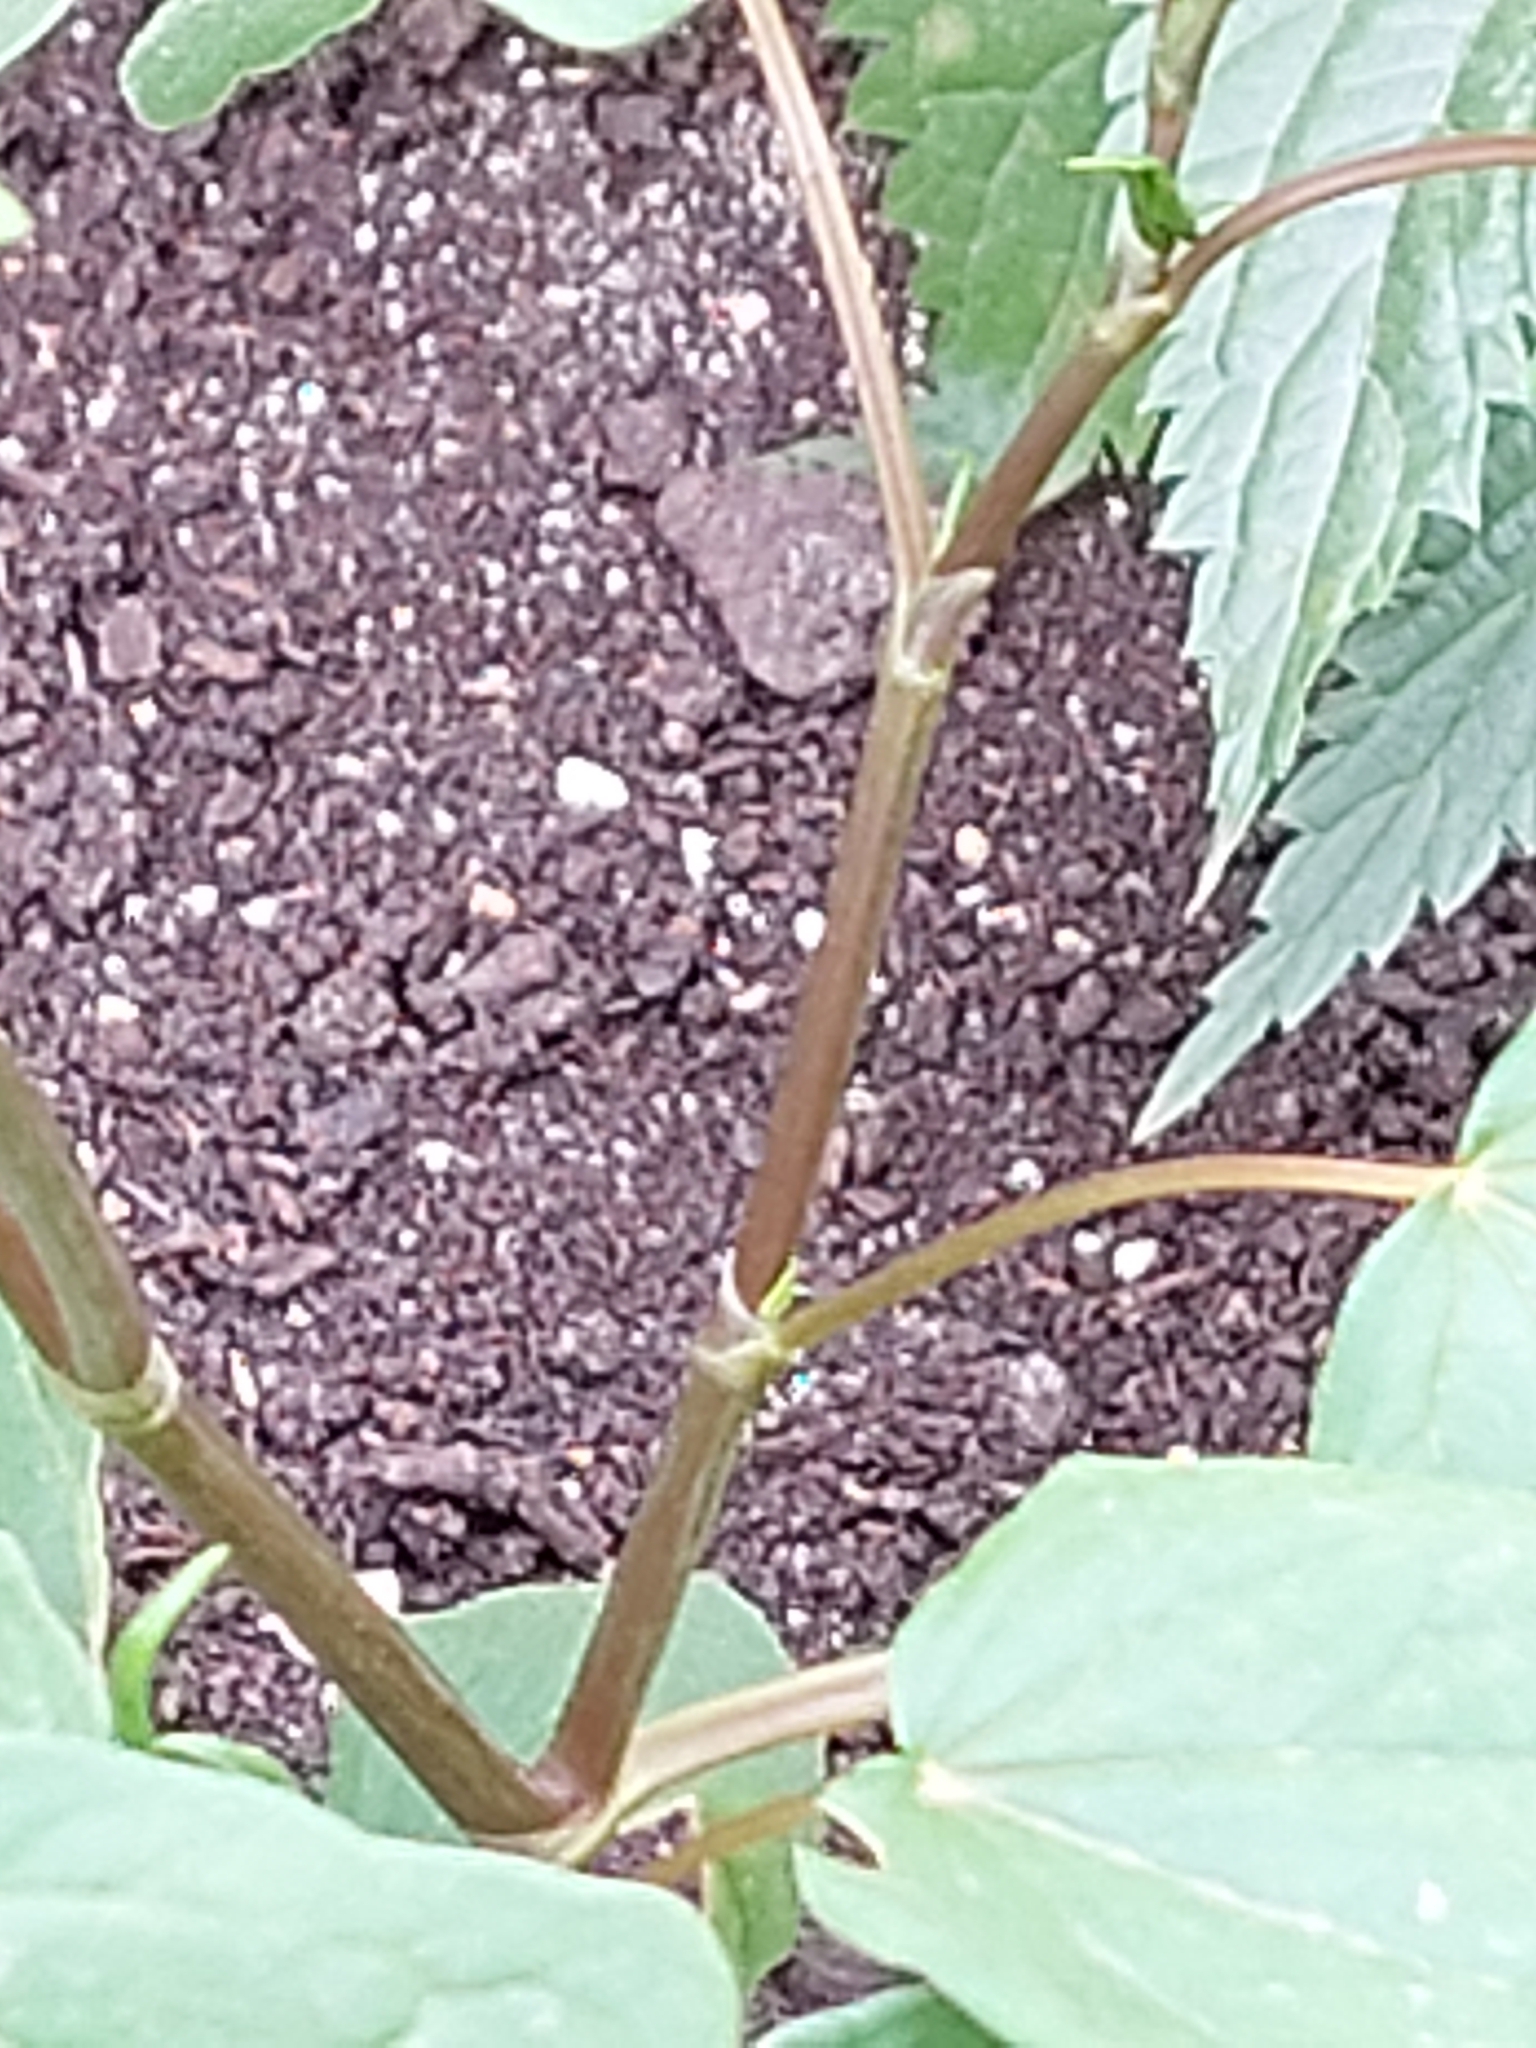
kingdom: Plantae
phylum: Tracheophyta
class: Magnoliopsida
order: Caryophyllales
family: Polygonaceae
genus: Fagopyrum
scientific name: Fagopyrum esculentum
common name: Buckwheat
